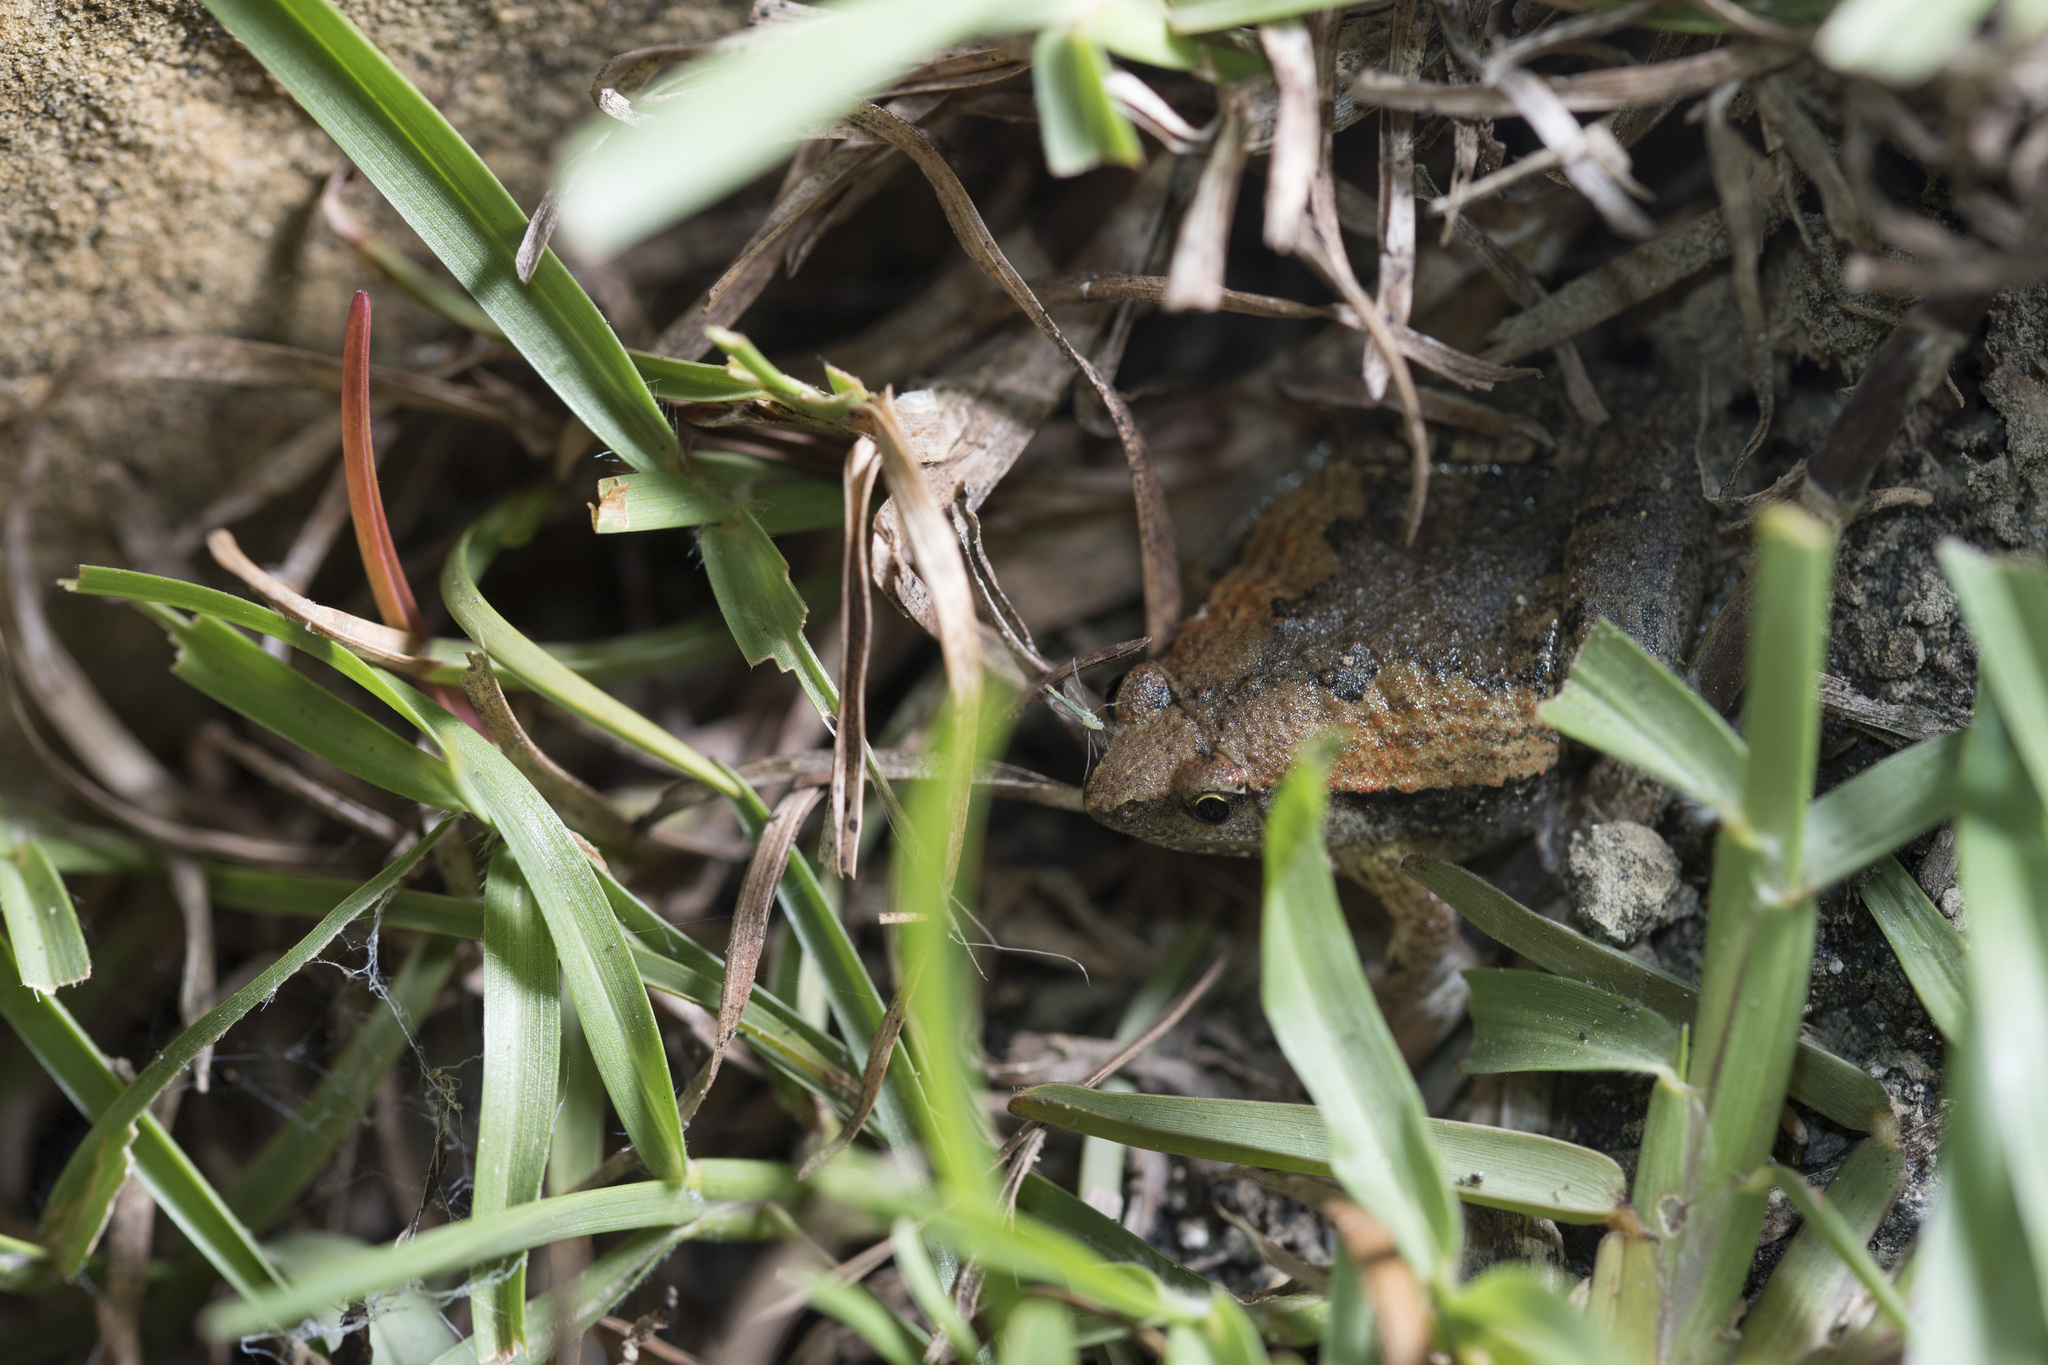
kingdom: Animalia
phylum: Chordata
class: Amphibia
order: Anura
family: Microhylidae
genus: Microhyla
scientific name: Microhyla fissipes
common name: Ornate narrow-mouthed frog
